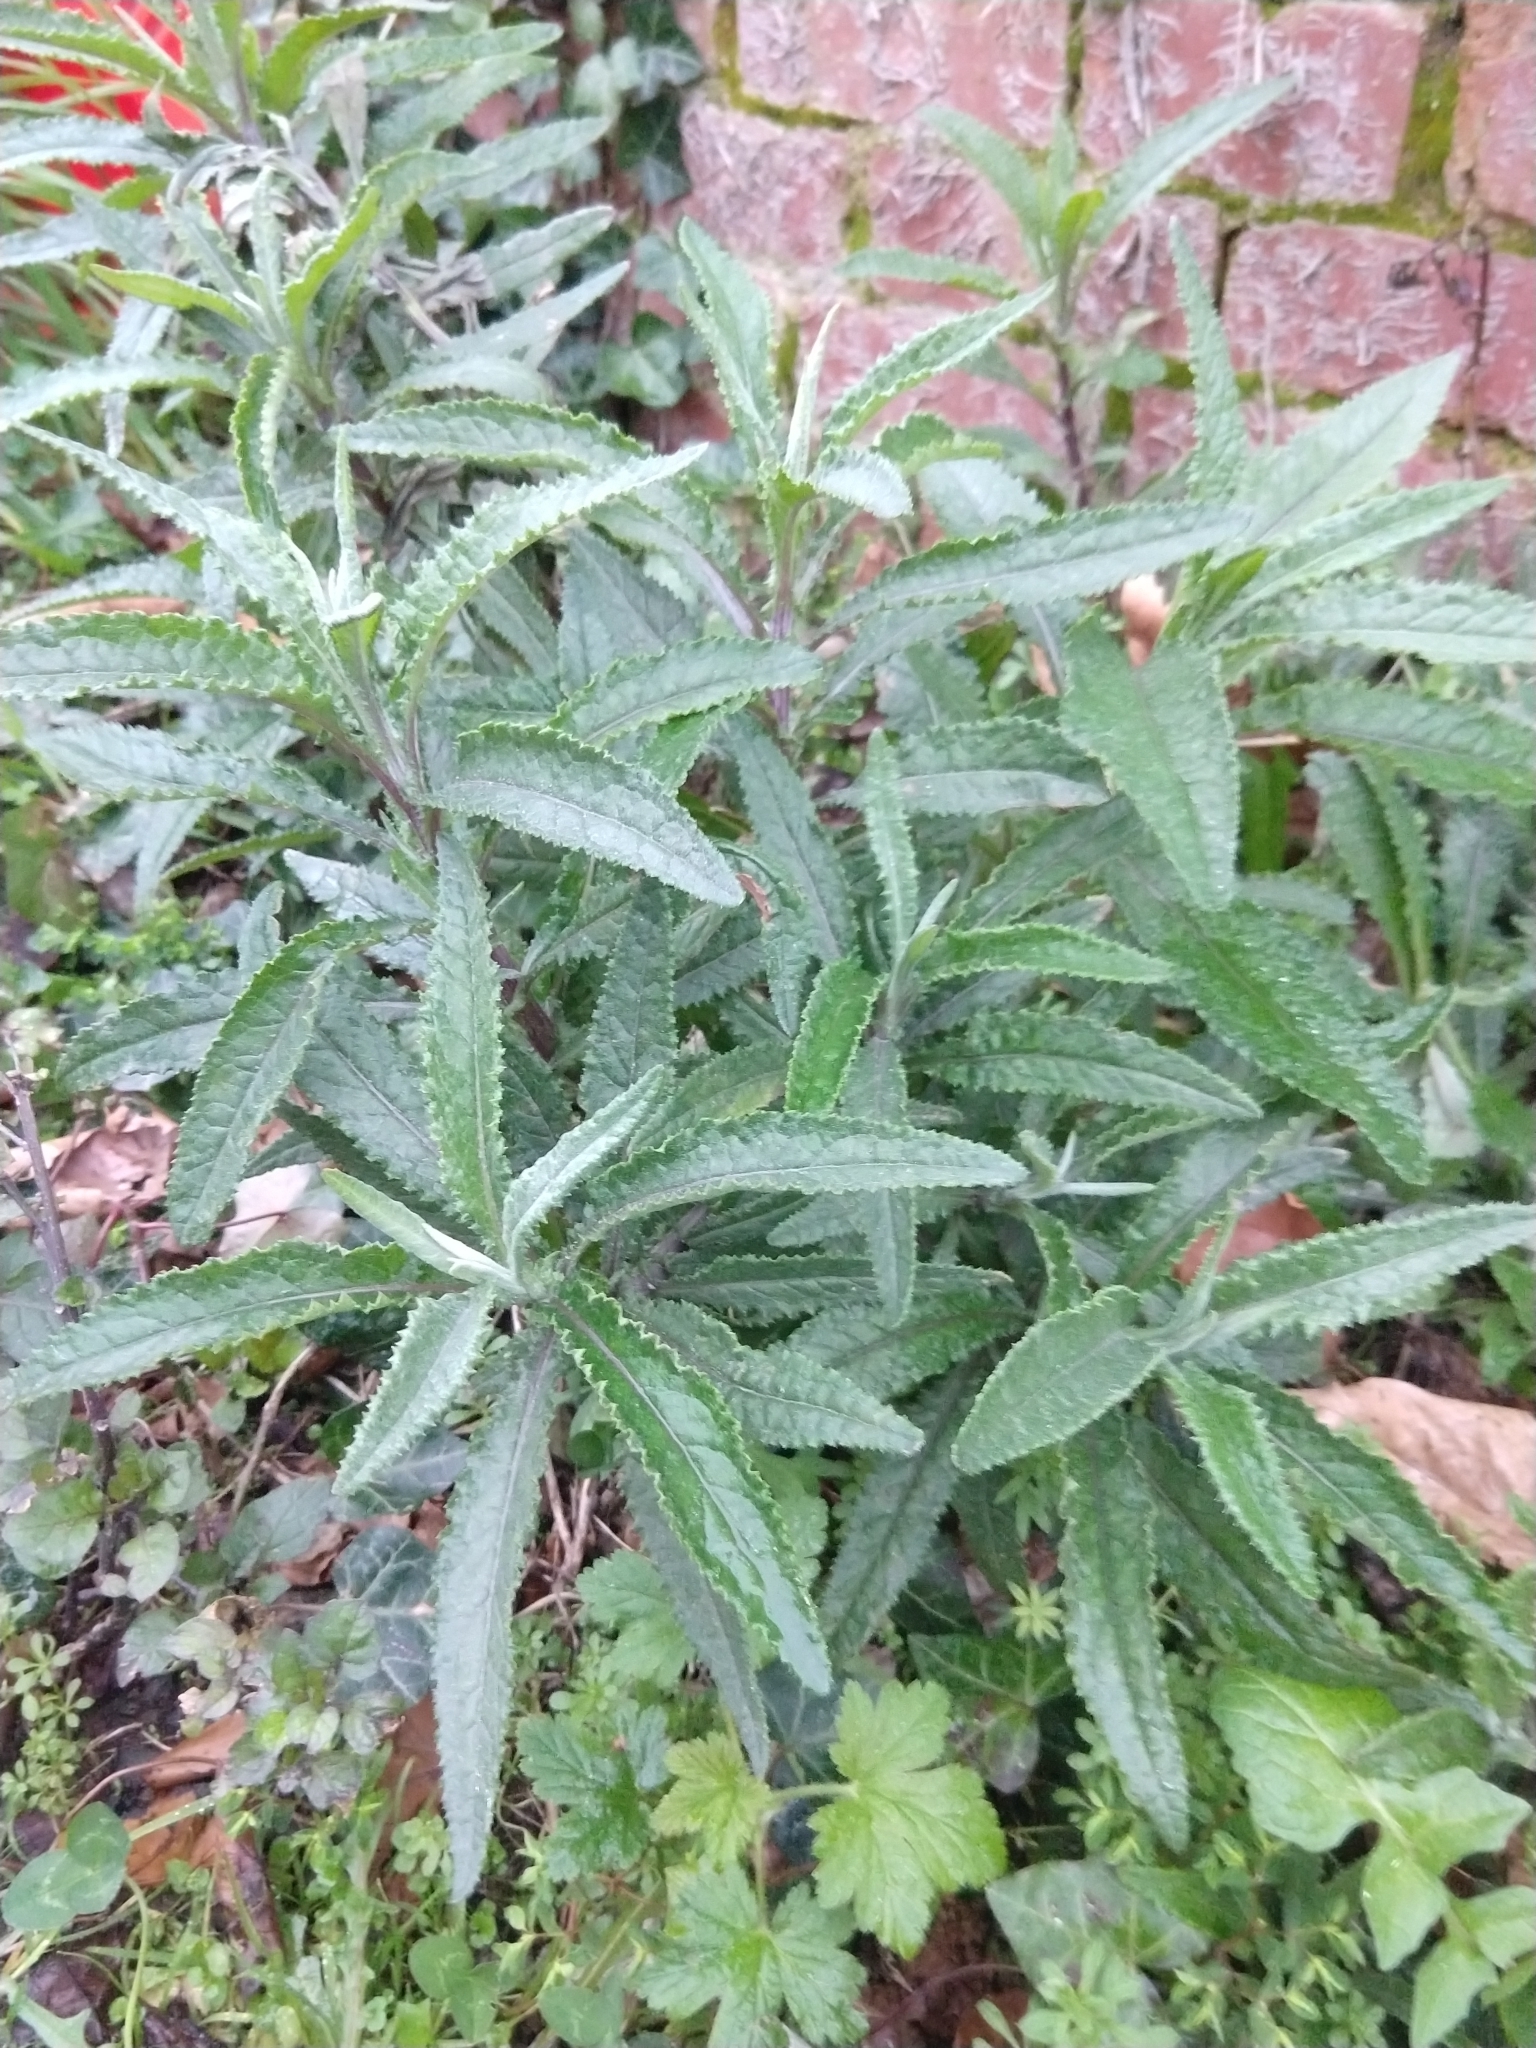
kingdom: Plantae
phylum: Tracheophyta
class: Magnoliopsida
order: Asterales
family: Asteraceae
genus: Senecio
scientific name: Senecio minimus
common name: Toothed fireweed
